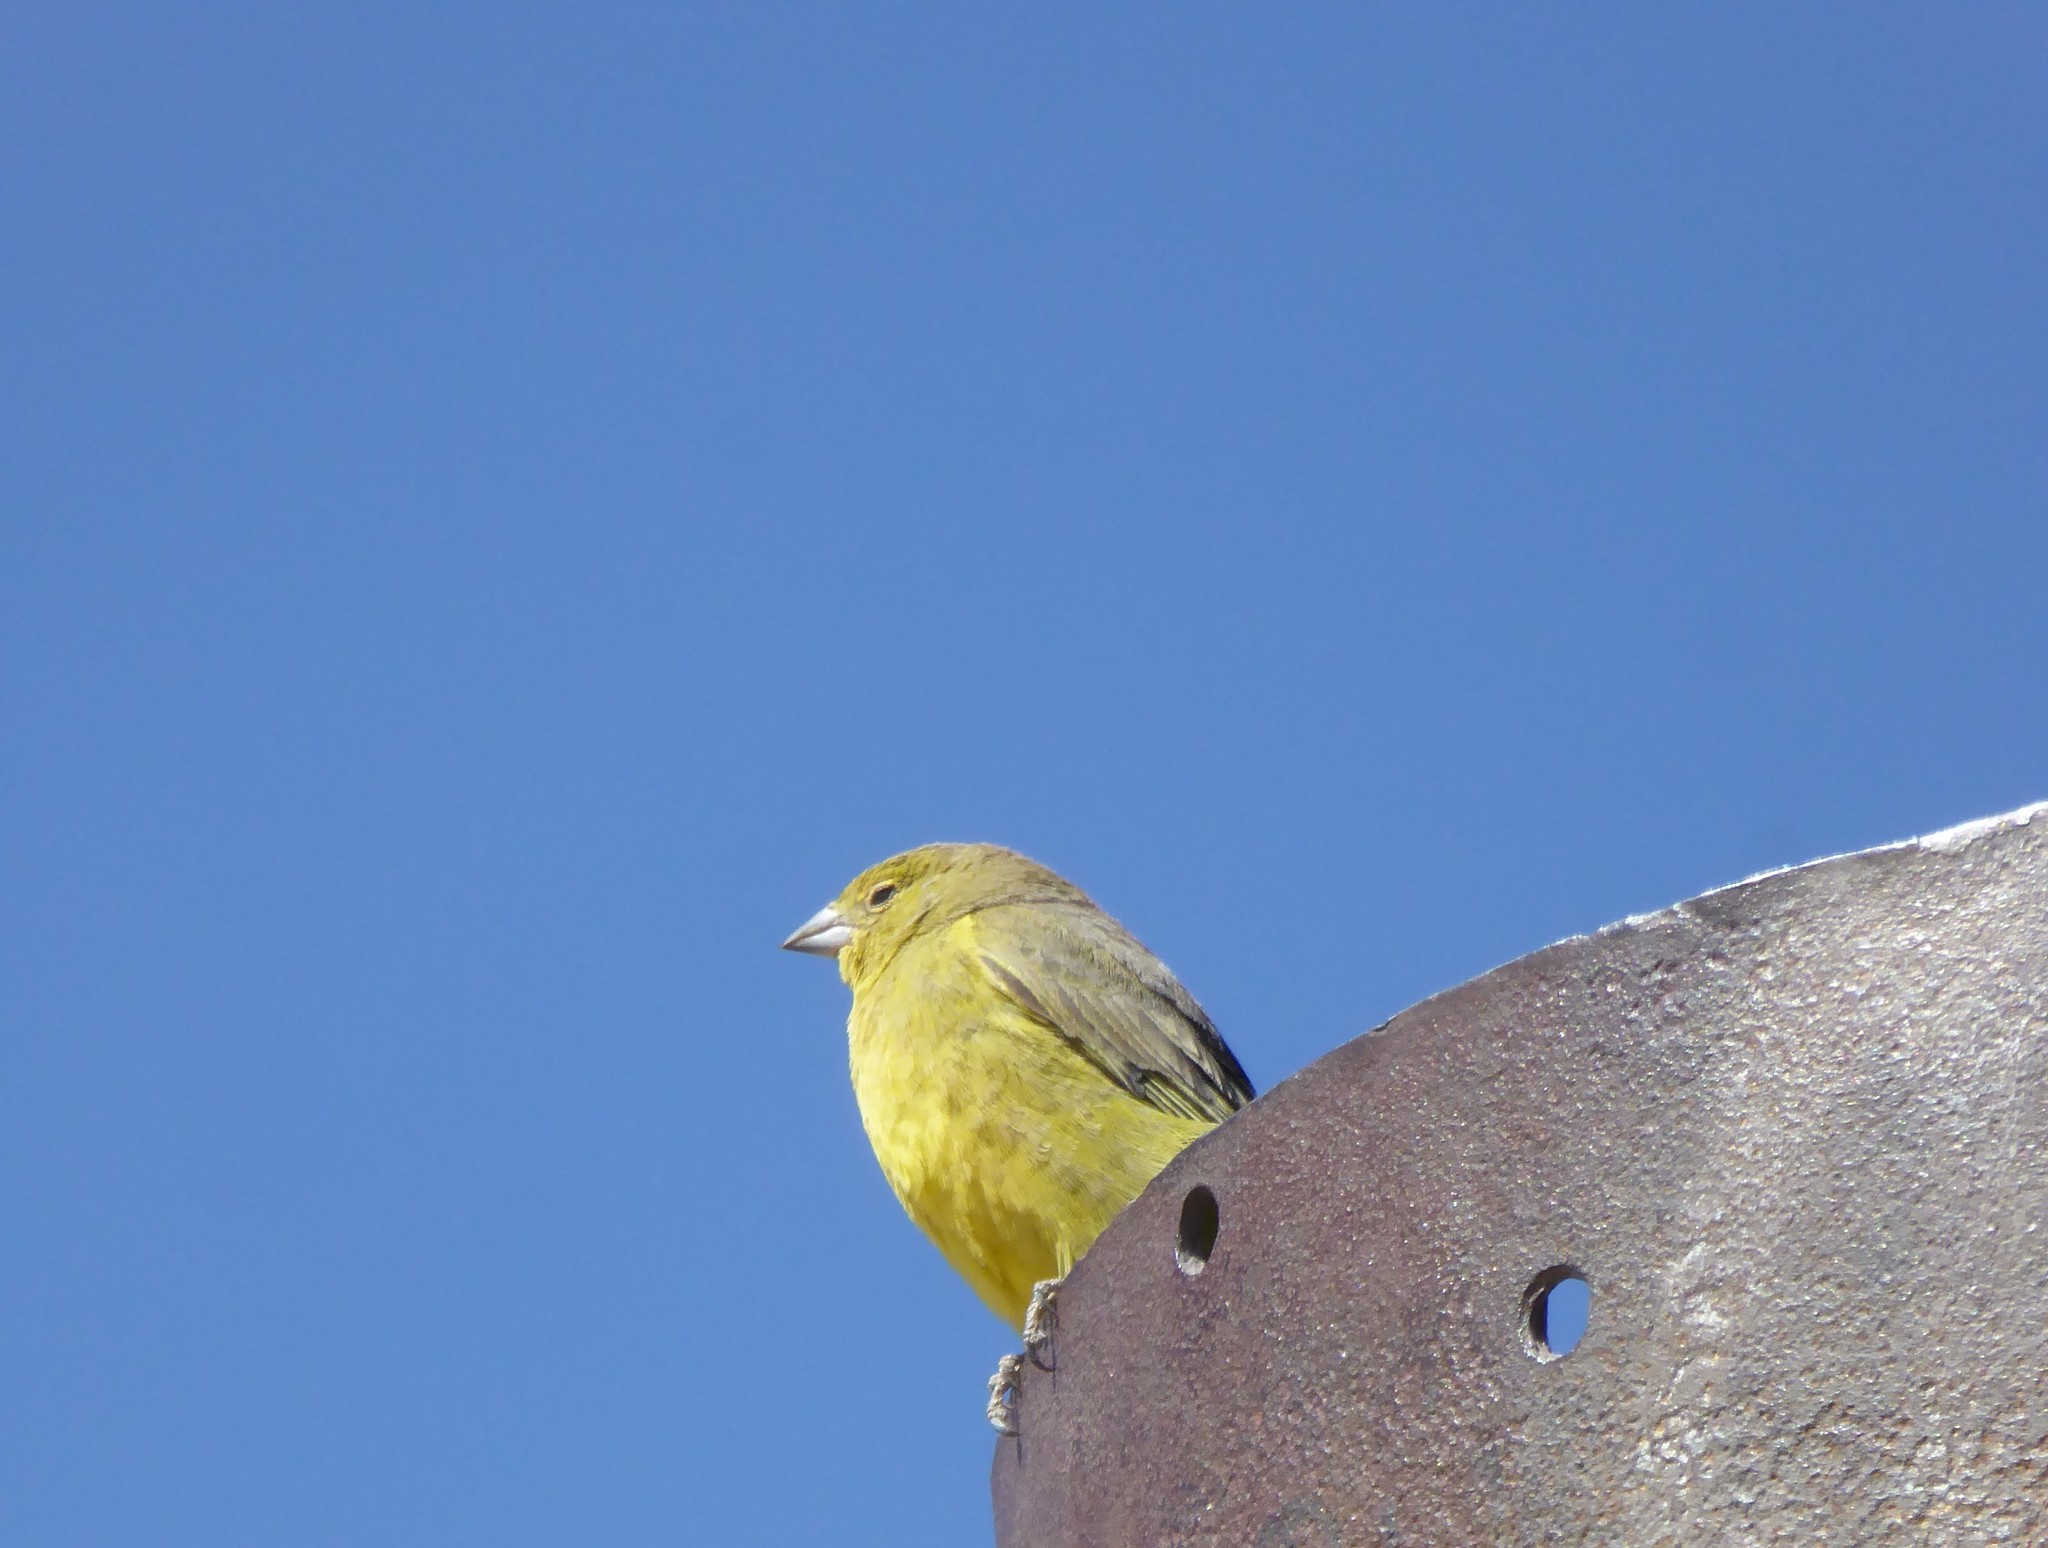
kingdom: Animalia
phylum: Chordata
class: Aves
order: Passeriformes
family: Thraupidae
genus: Sicalis
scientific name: Sicalis olivascens
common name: Greenish yellow finch
